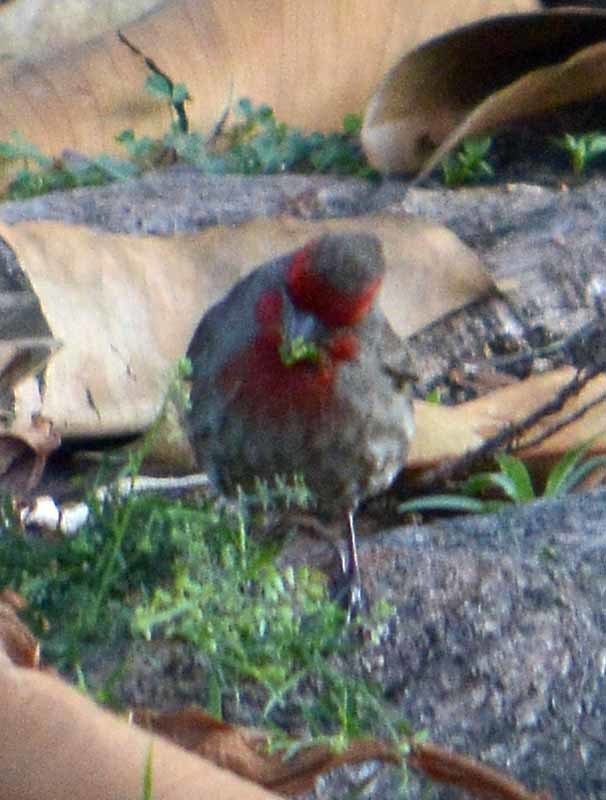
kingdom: Animalia
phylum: Chordata
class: Aves
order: Passeriformes
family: Fringillidae
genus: Haemorhous
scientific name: Haemorhous mexicanus
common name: House finch
